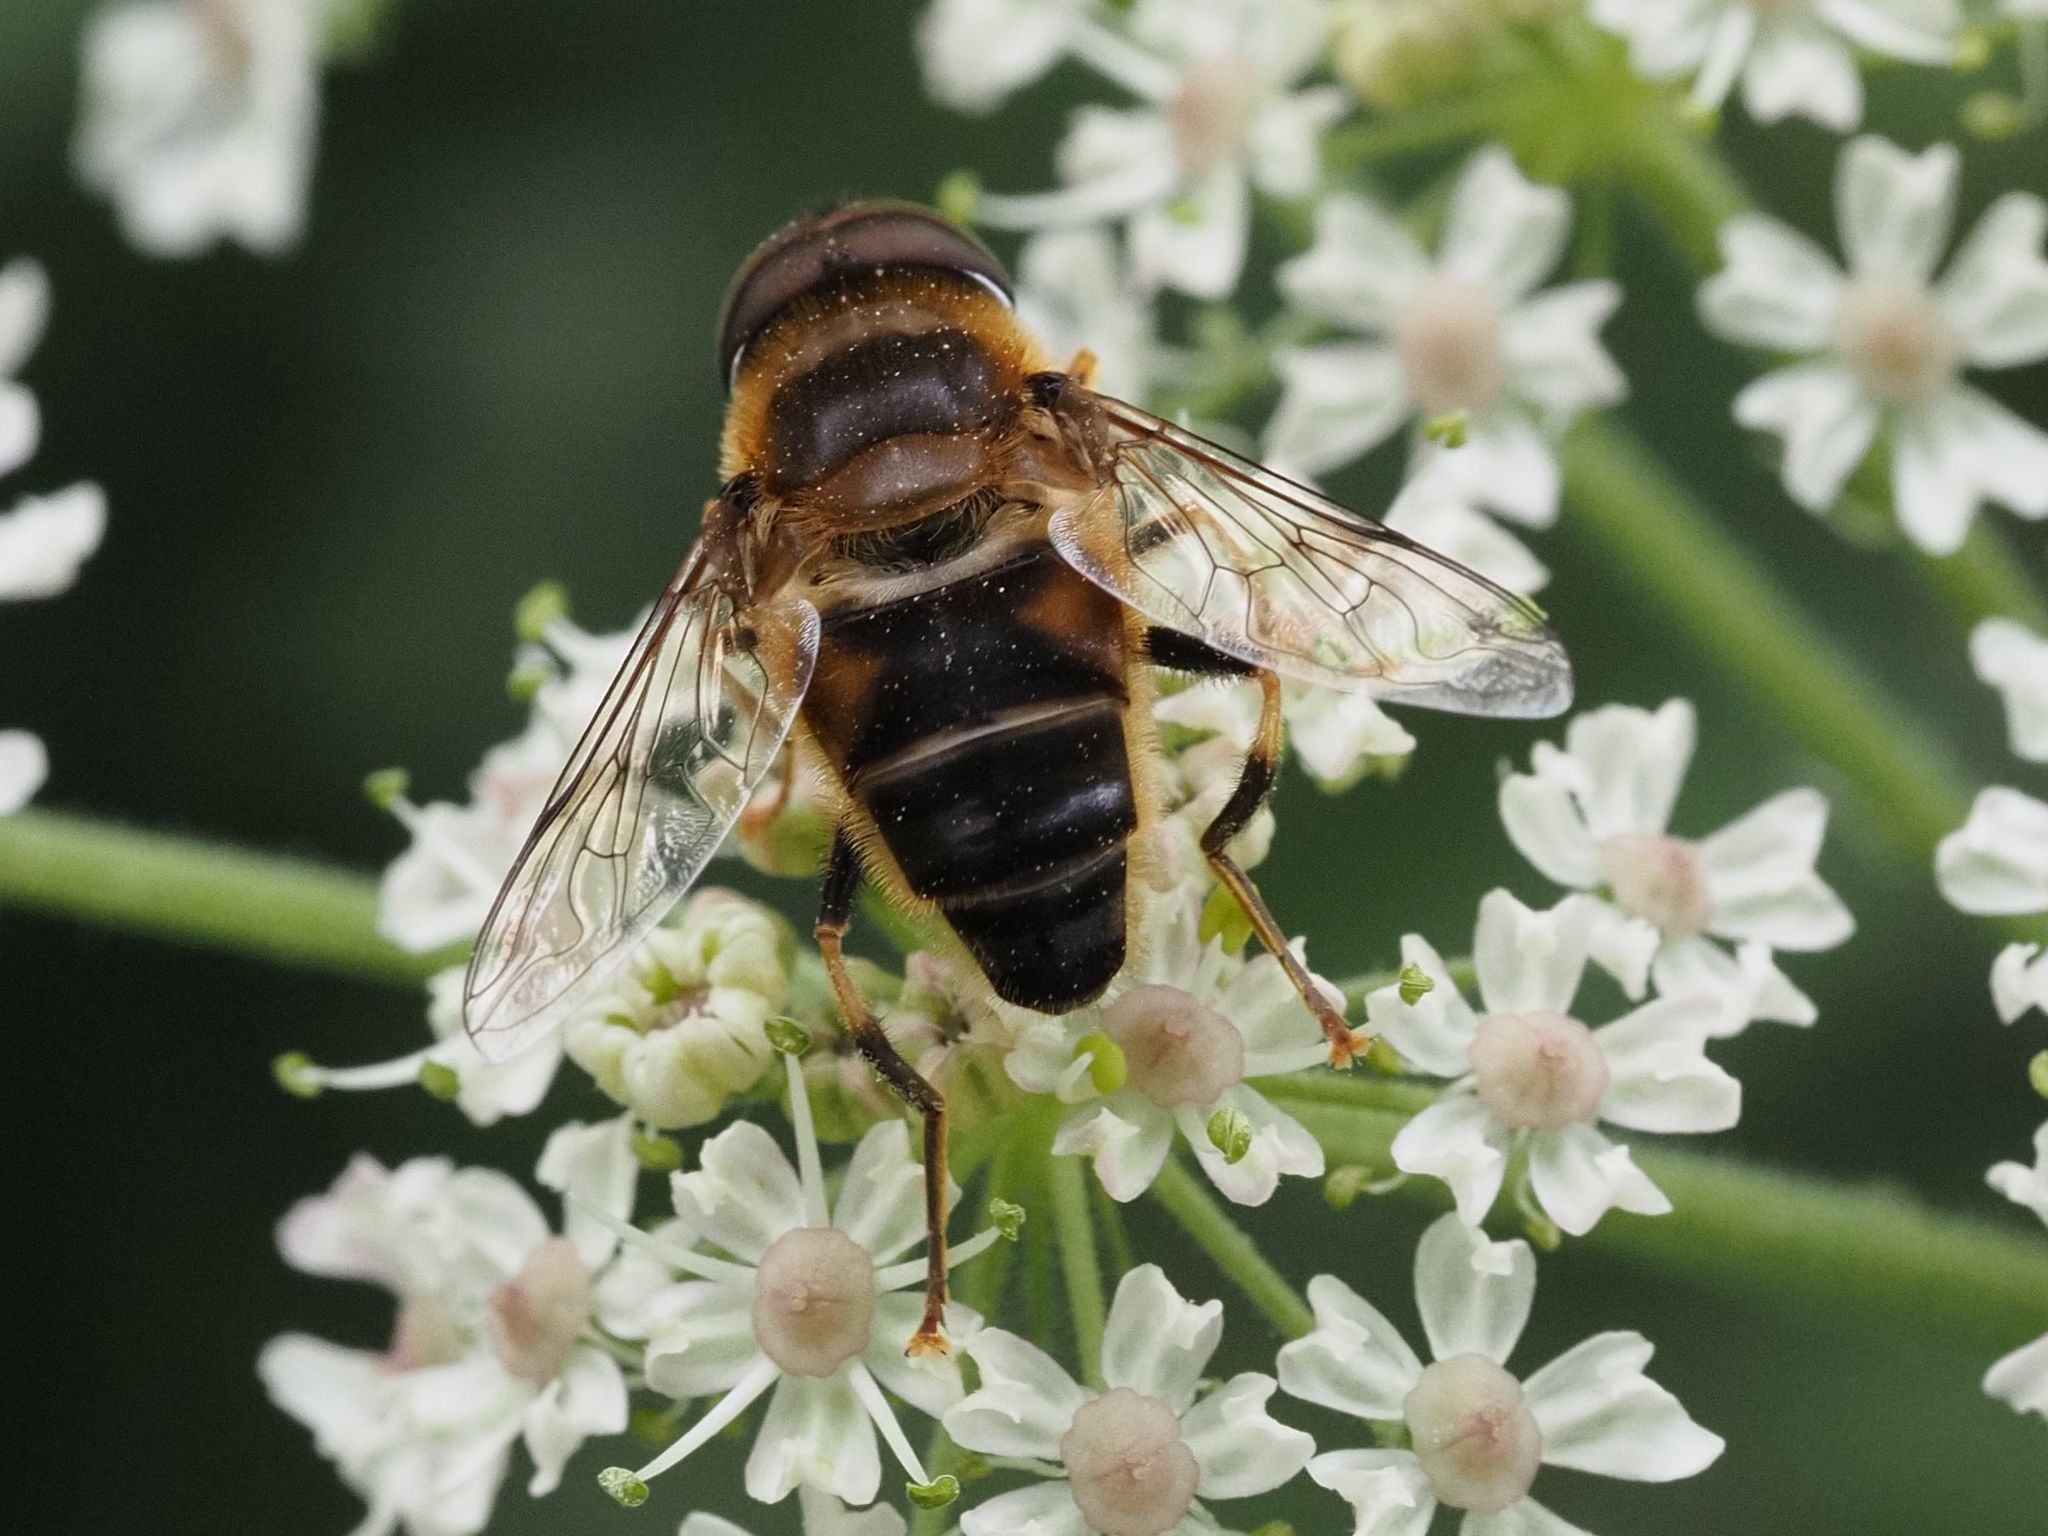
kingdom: Animalia
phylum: Arthropoda
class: Insecta
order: Diptera
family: Syrphidae
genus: Eristalis
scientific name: Eristalis pertinax
